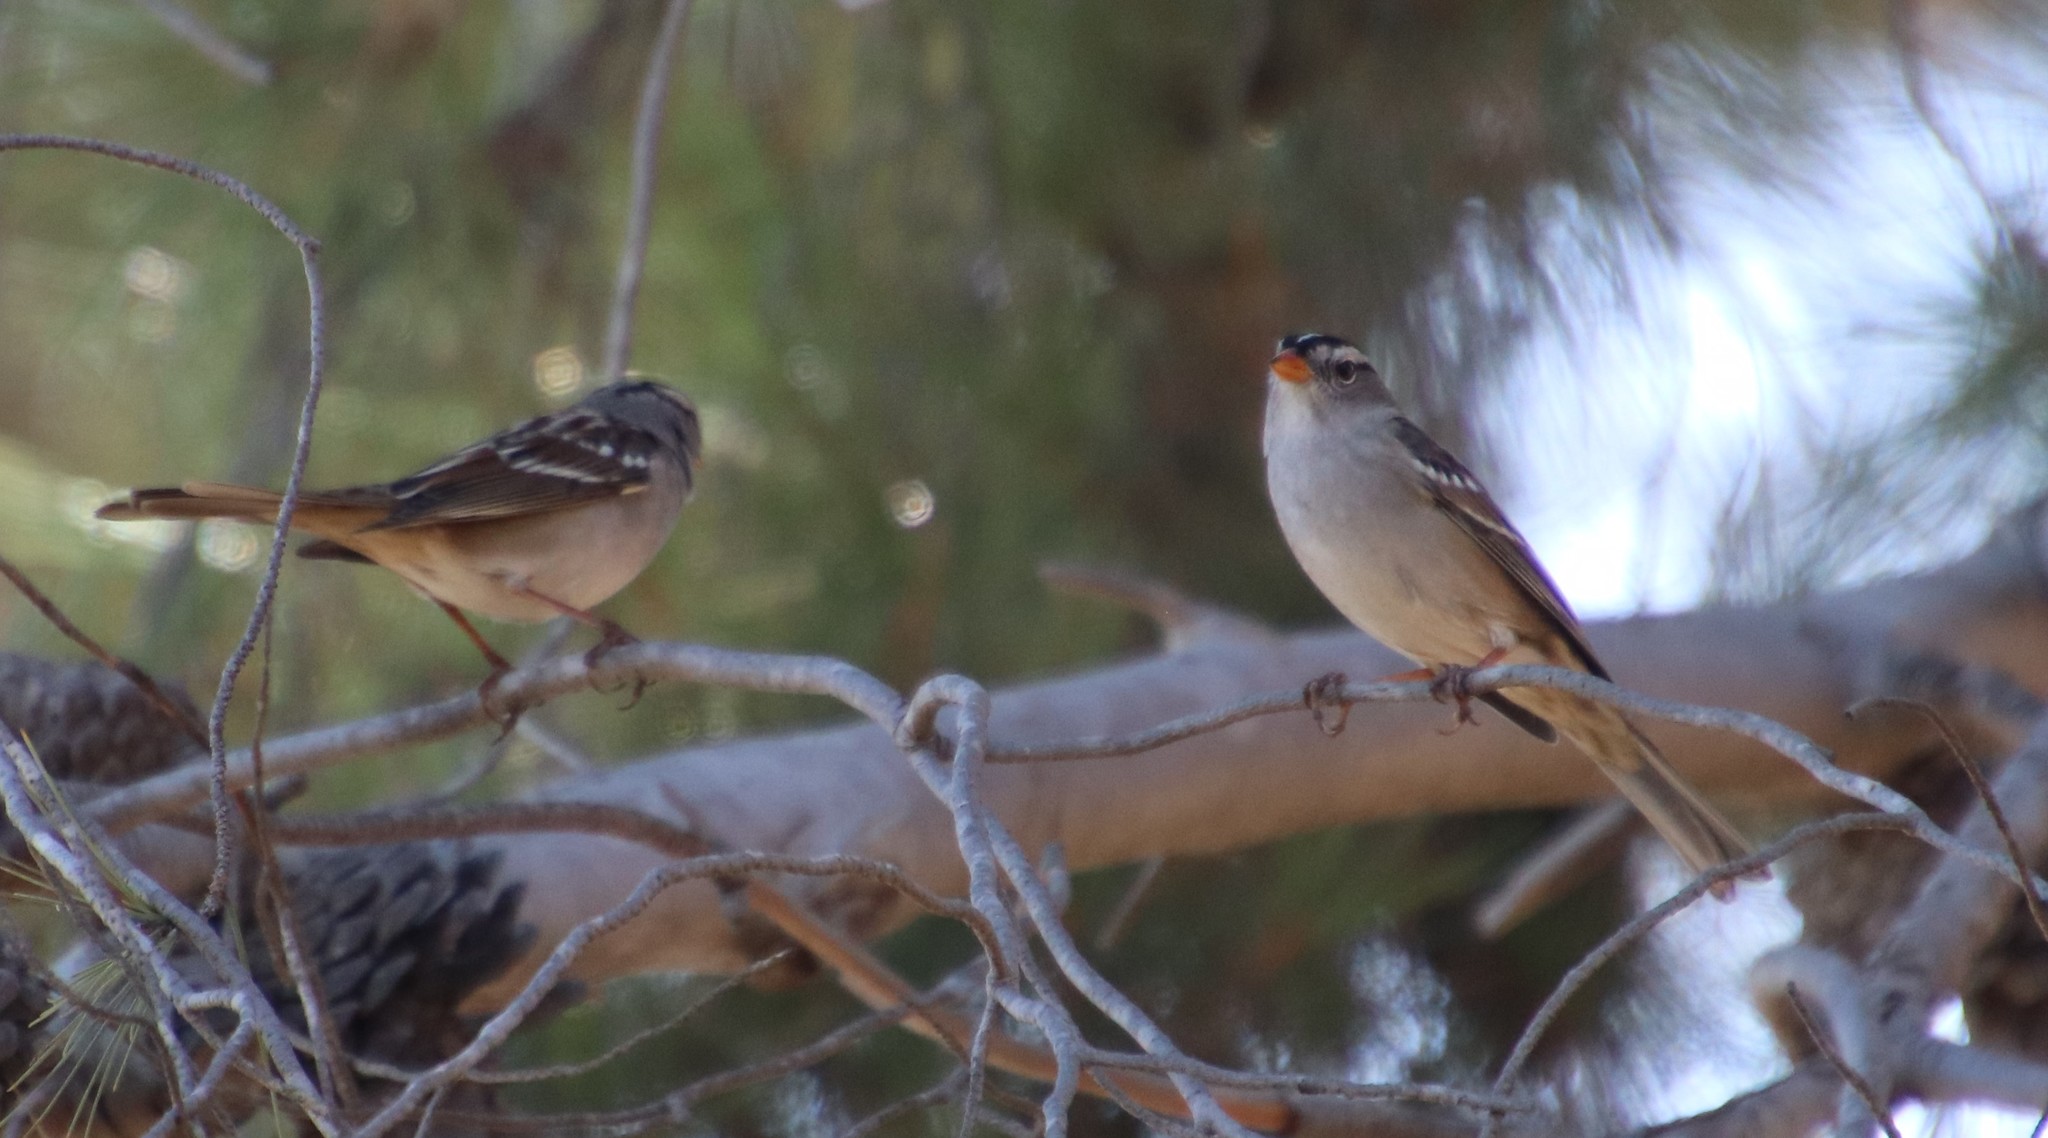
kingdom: Animalia
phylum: Chordata
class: Aves
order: Passeriformes
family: Passerellidae
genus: Zonotrichia
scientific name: Zonotrichia leucophrys
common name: White-crowned sparrow
